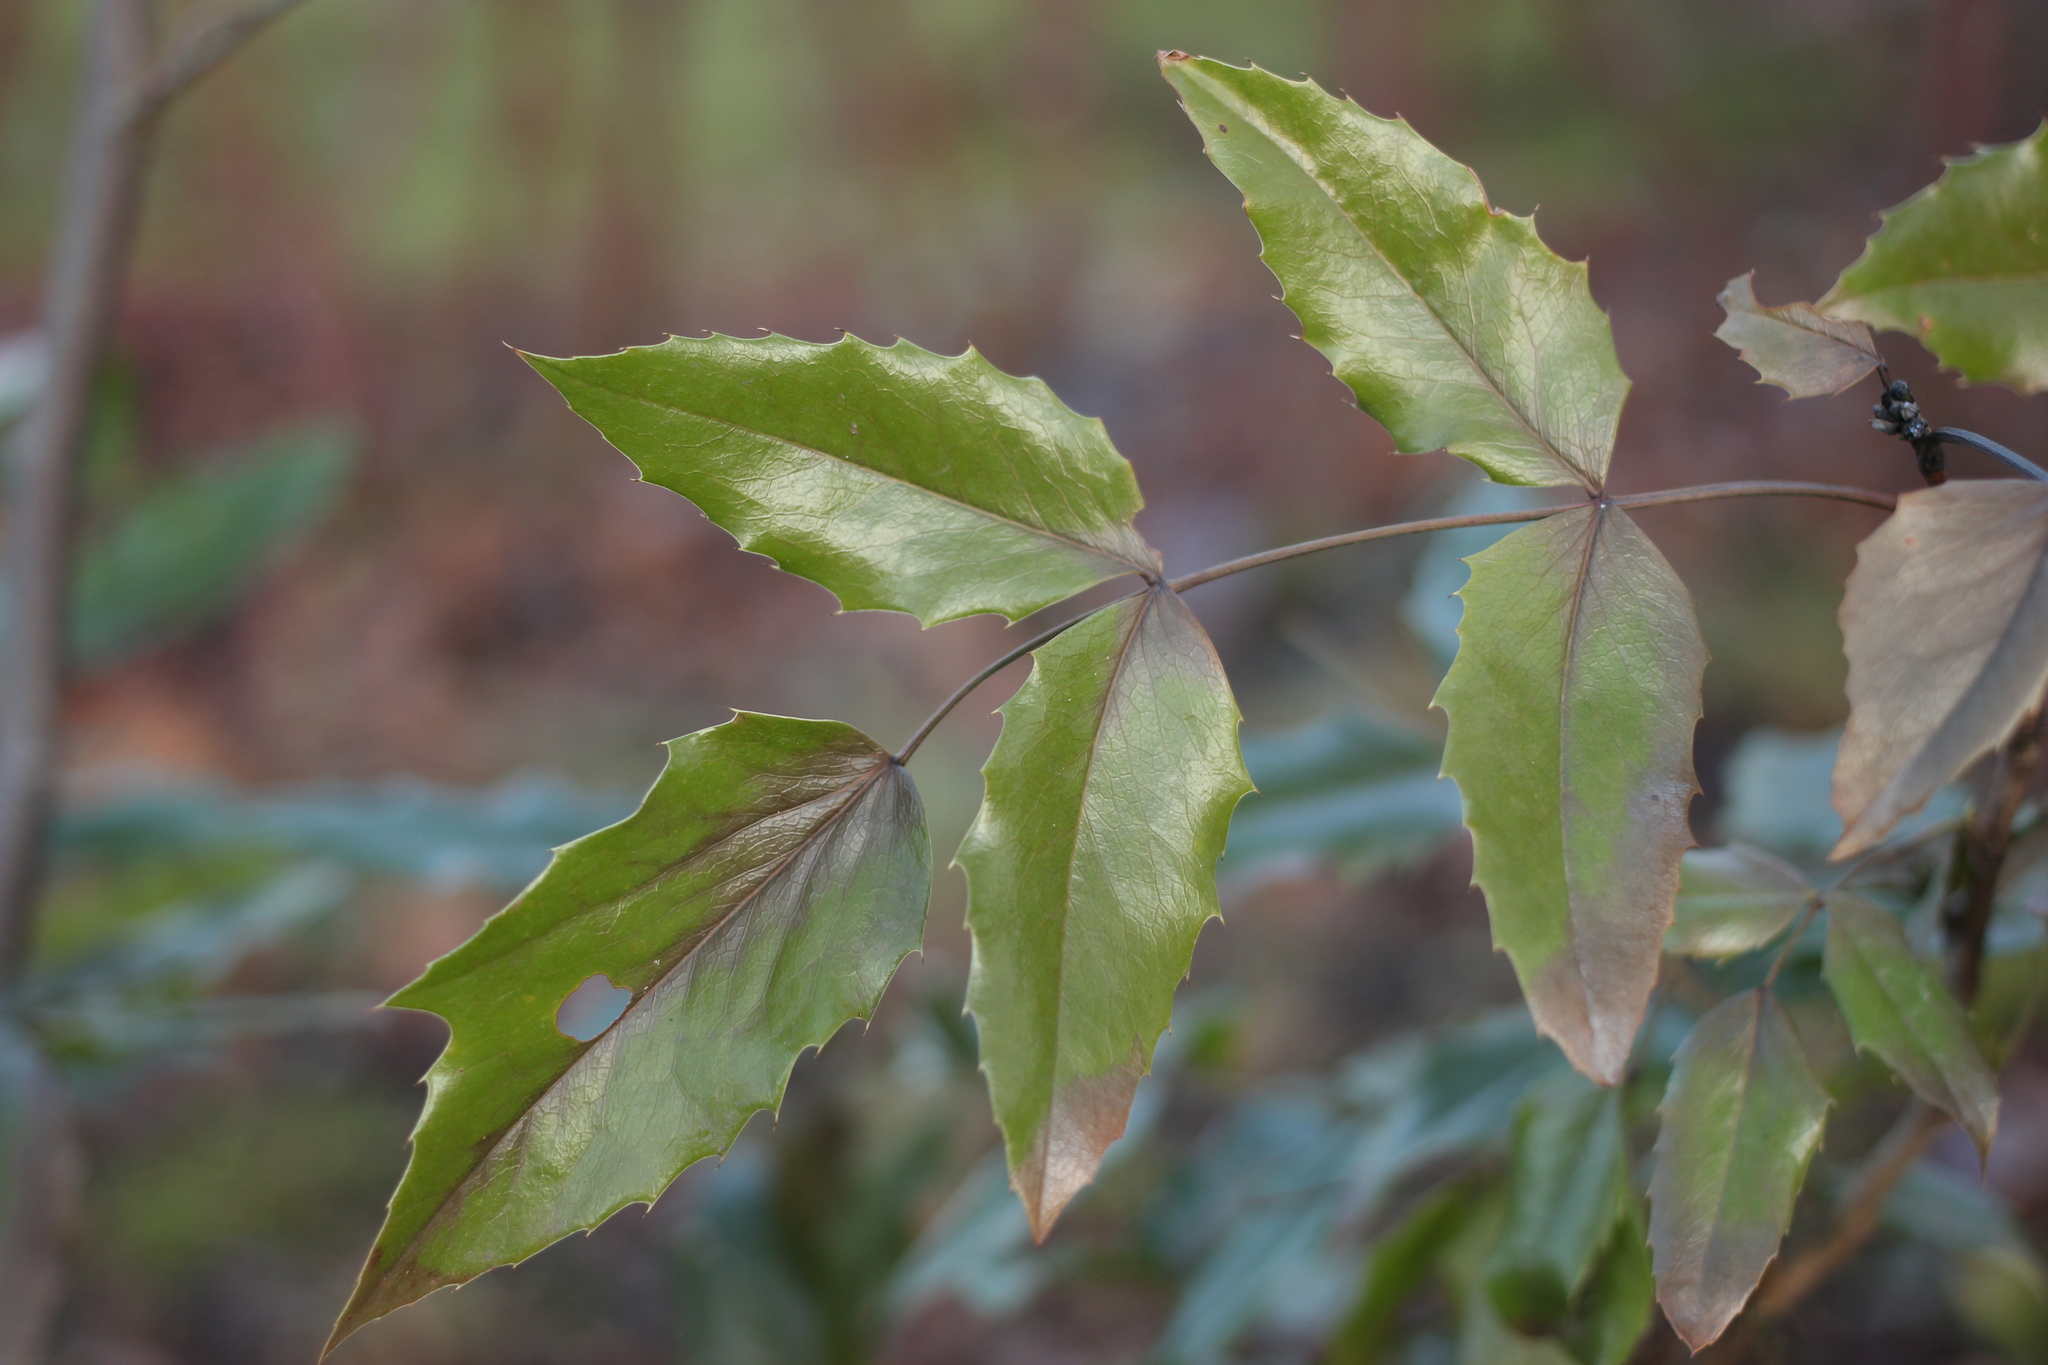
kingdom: Plantae
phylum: Tracheophyta
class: Magnoliopsida
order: Ranunculales
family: Berberidaceae
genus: Mahonia
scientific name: Mahonia aquifolium
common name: Oregon-grape
